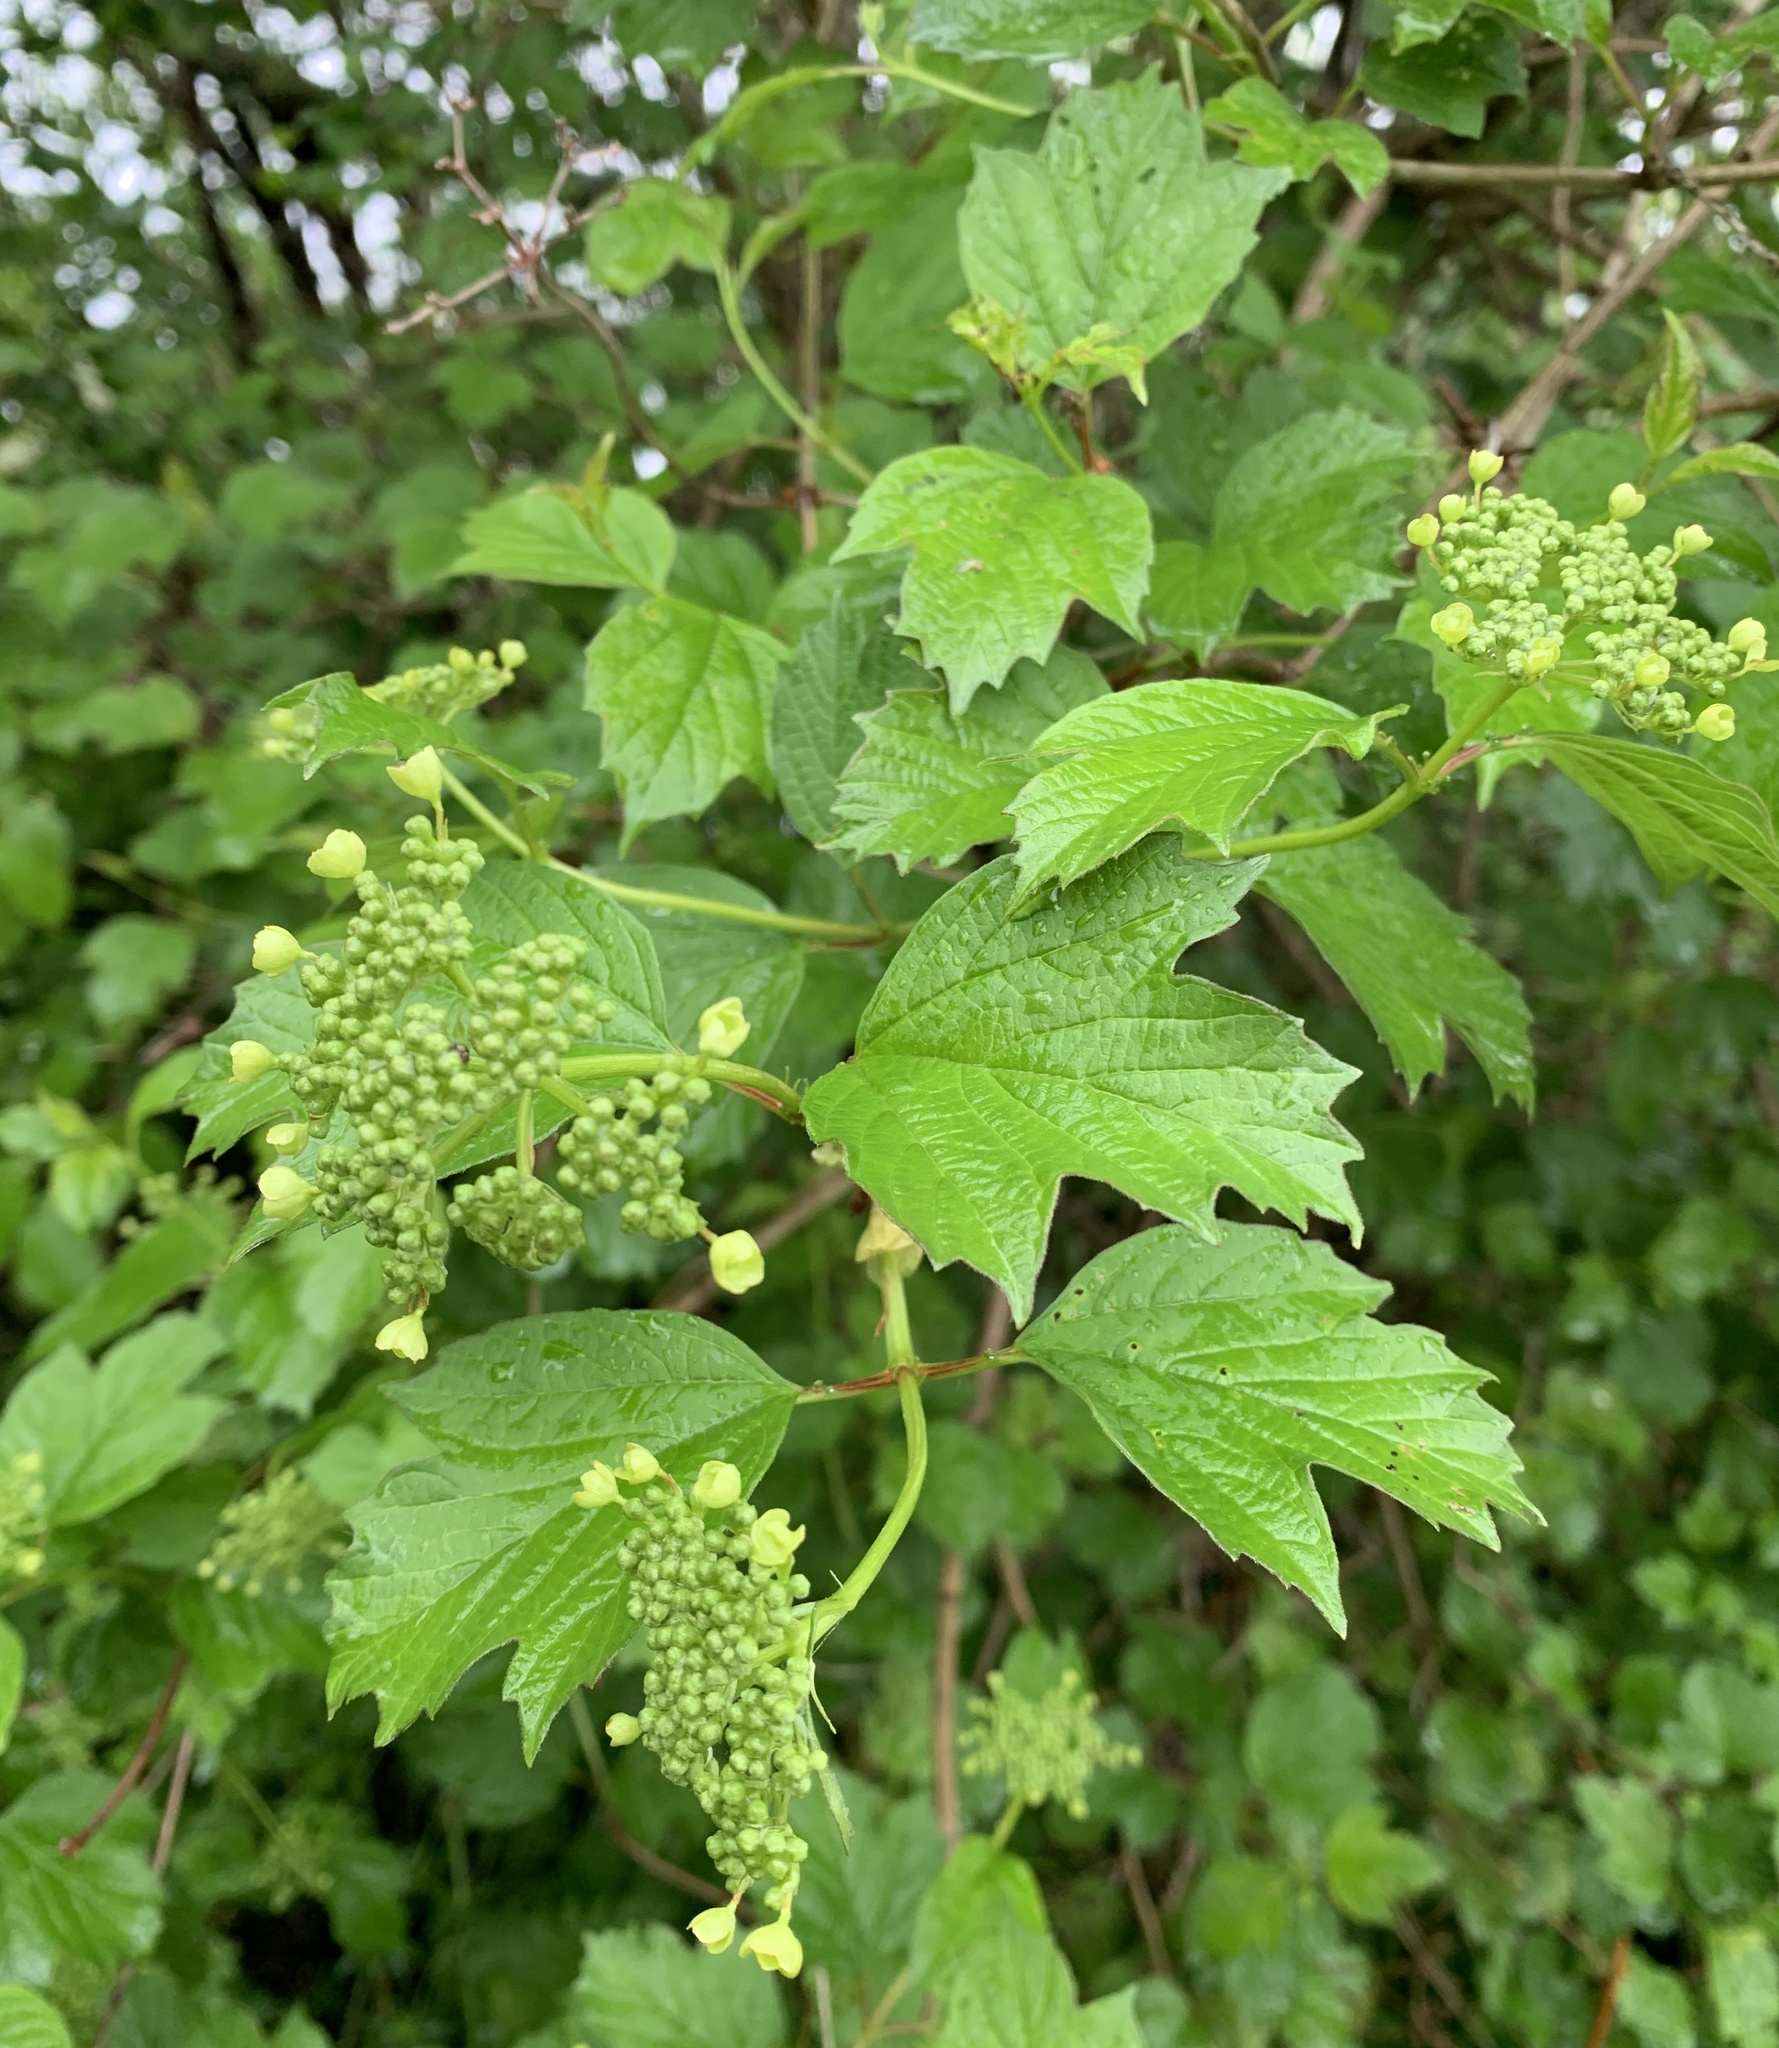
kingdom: Plantae
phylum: Tracheophyta
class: Magnoliopsida
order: Dipsacales
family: Viburnaceae
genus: Viburnum
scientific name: Viburnum opulus
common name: Guelder-rose
